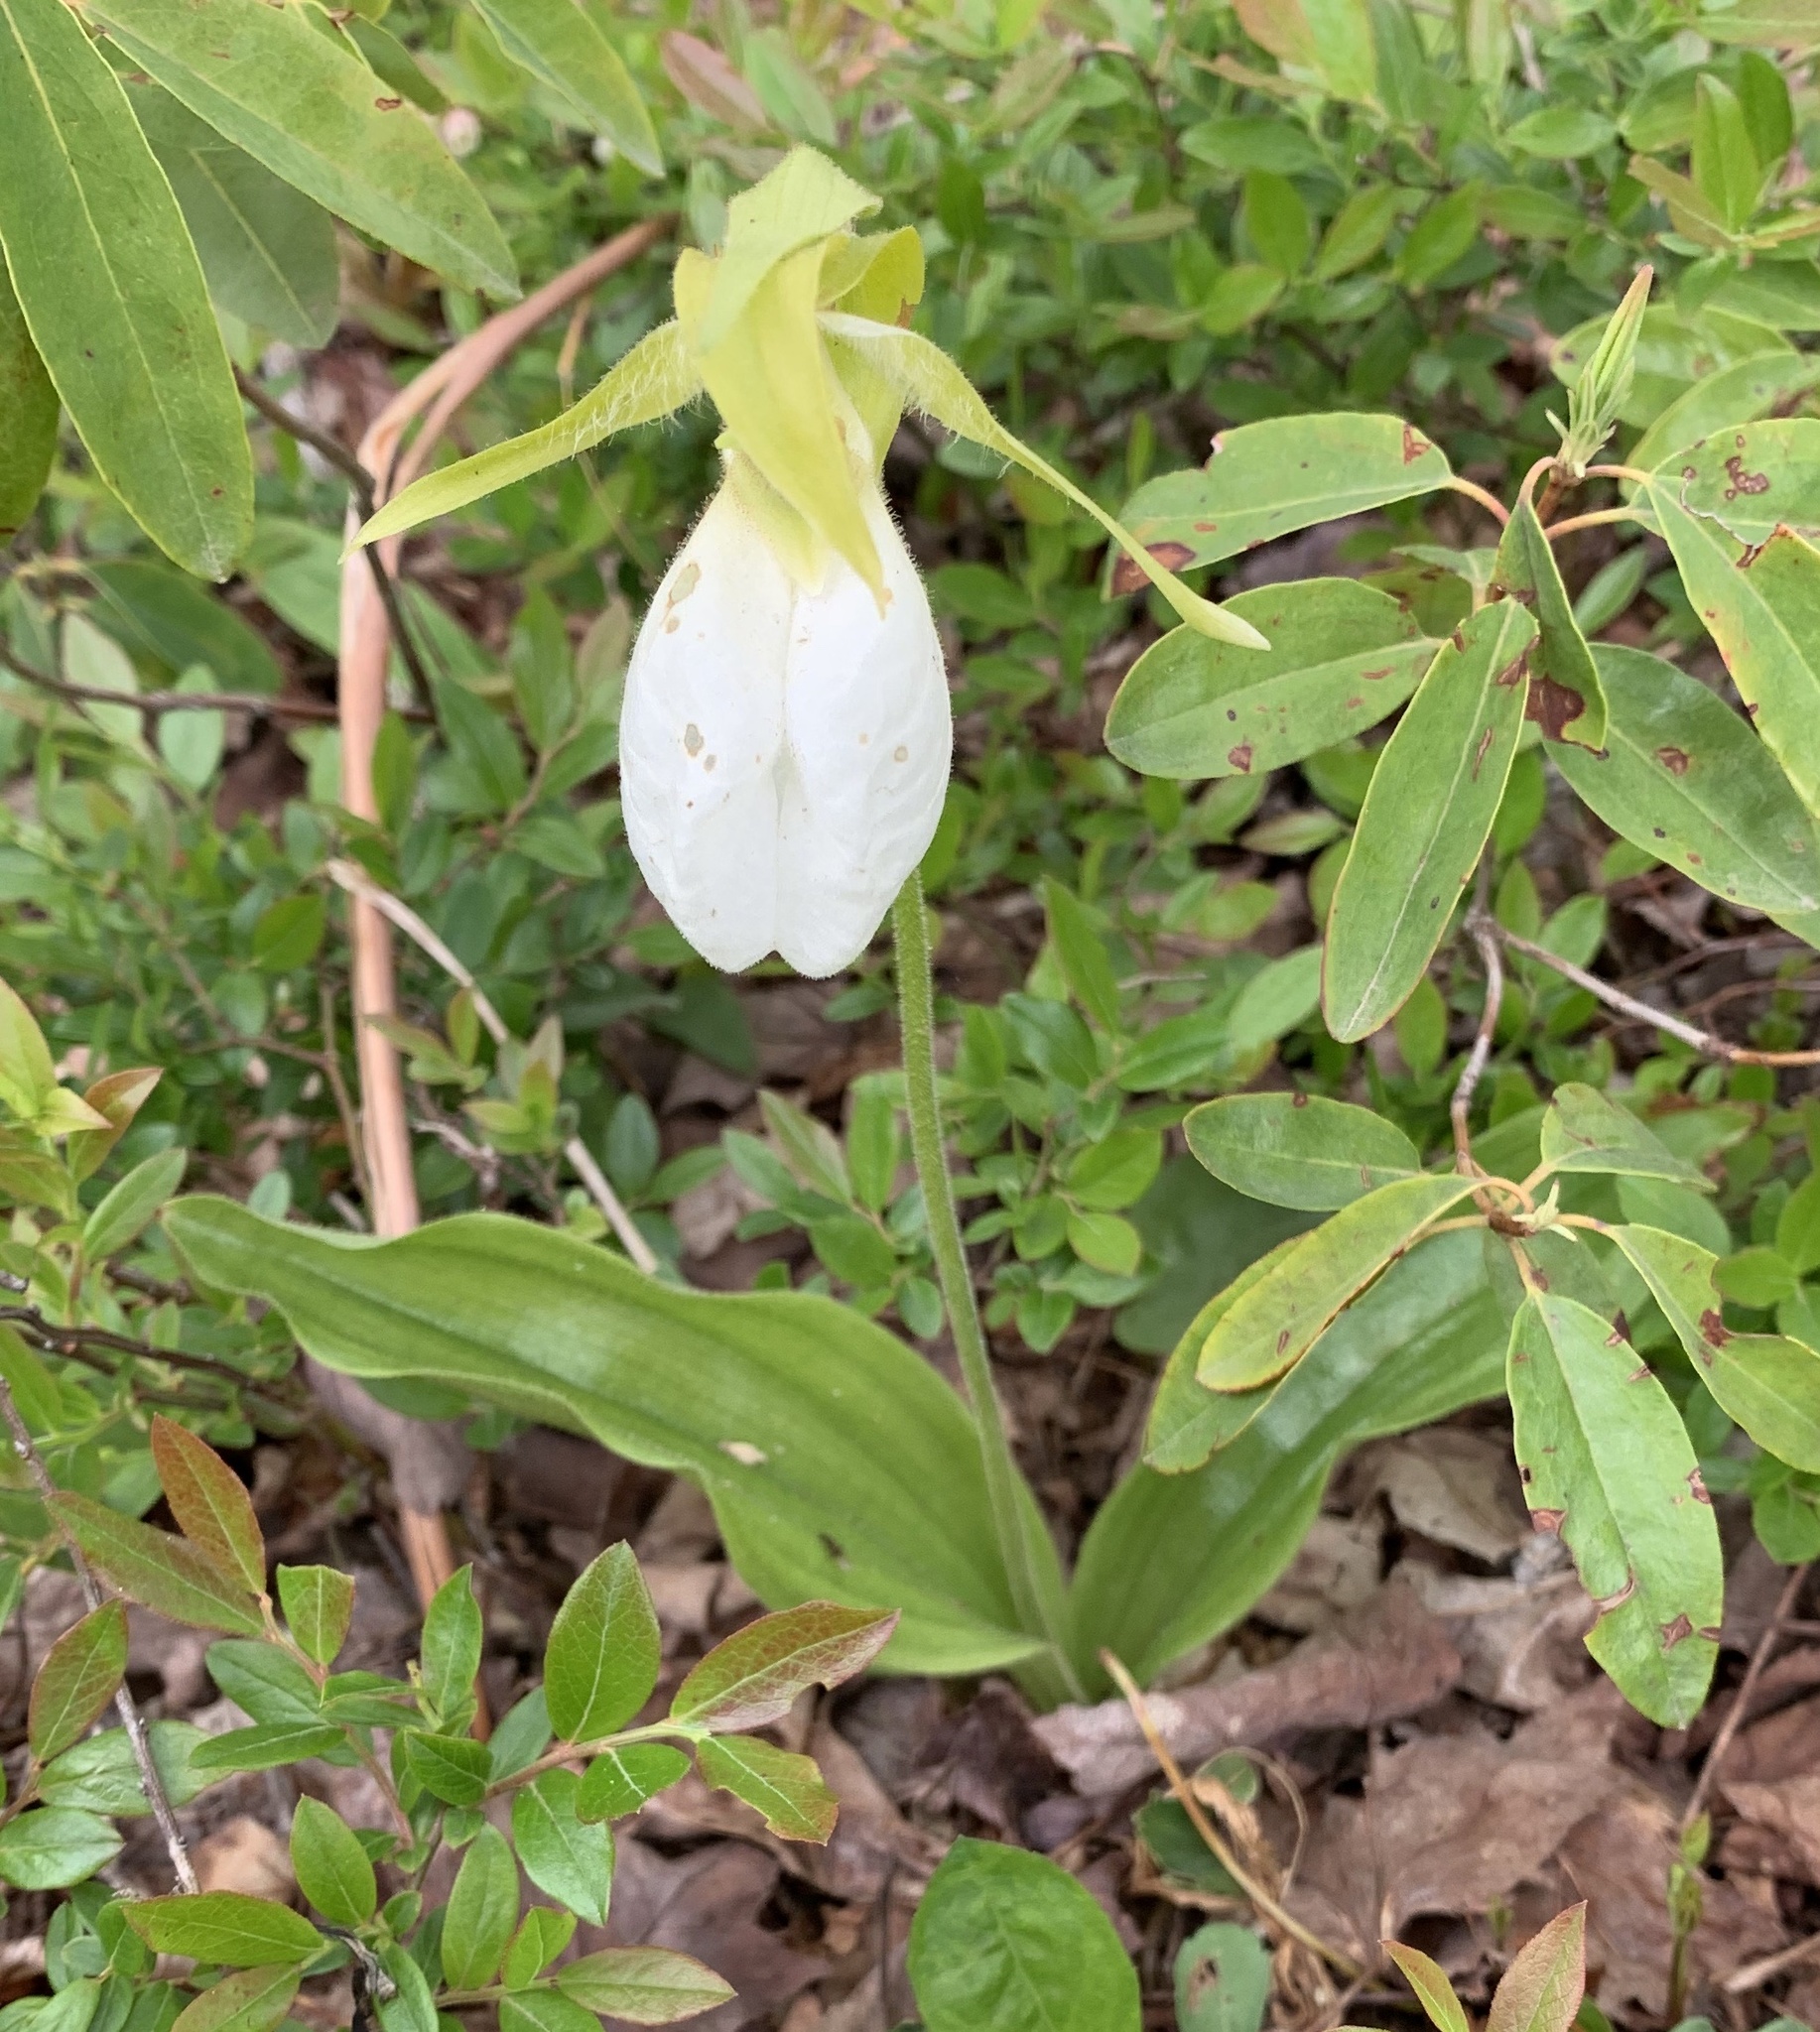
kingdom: Plantae
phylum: Tracheophyta
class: Liliopsida
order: Asparagales
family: Orchidaceae
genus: Cypripedium
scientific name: Cypripedium acaule
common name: Pink lady's-slipper
